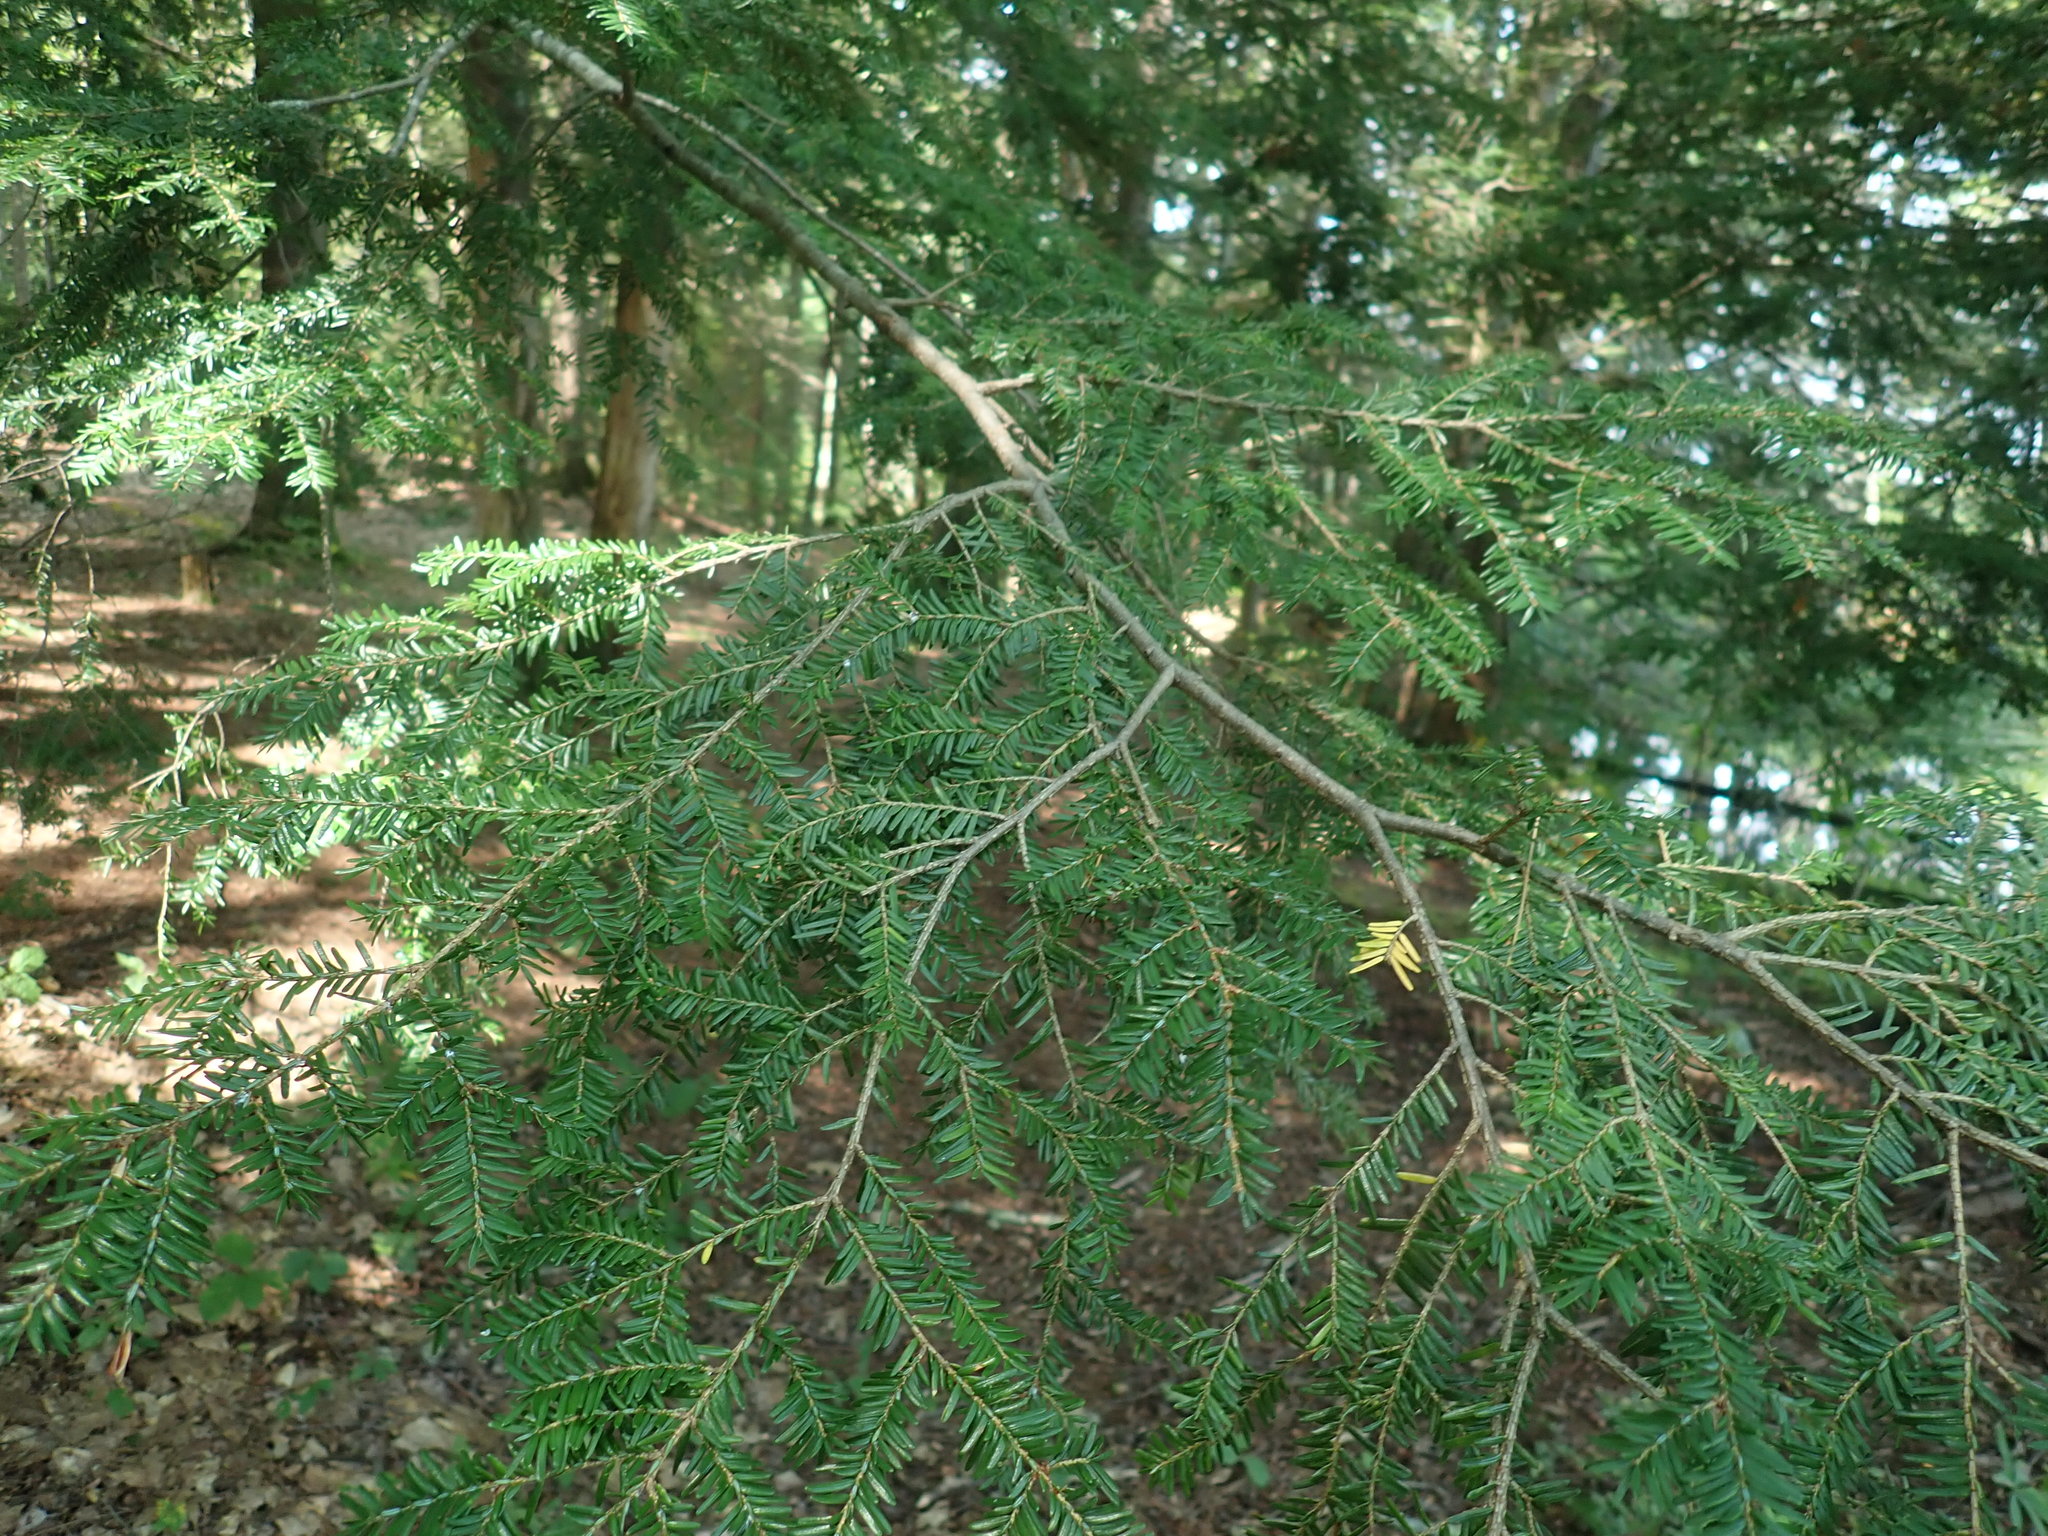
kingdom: Plantae
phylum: Tracheophyta
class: Pinopsida
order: Pinales
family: Pinaceae
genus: Tsuga
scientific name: Tsuga canadensis
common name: Eastern hemlock
